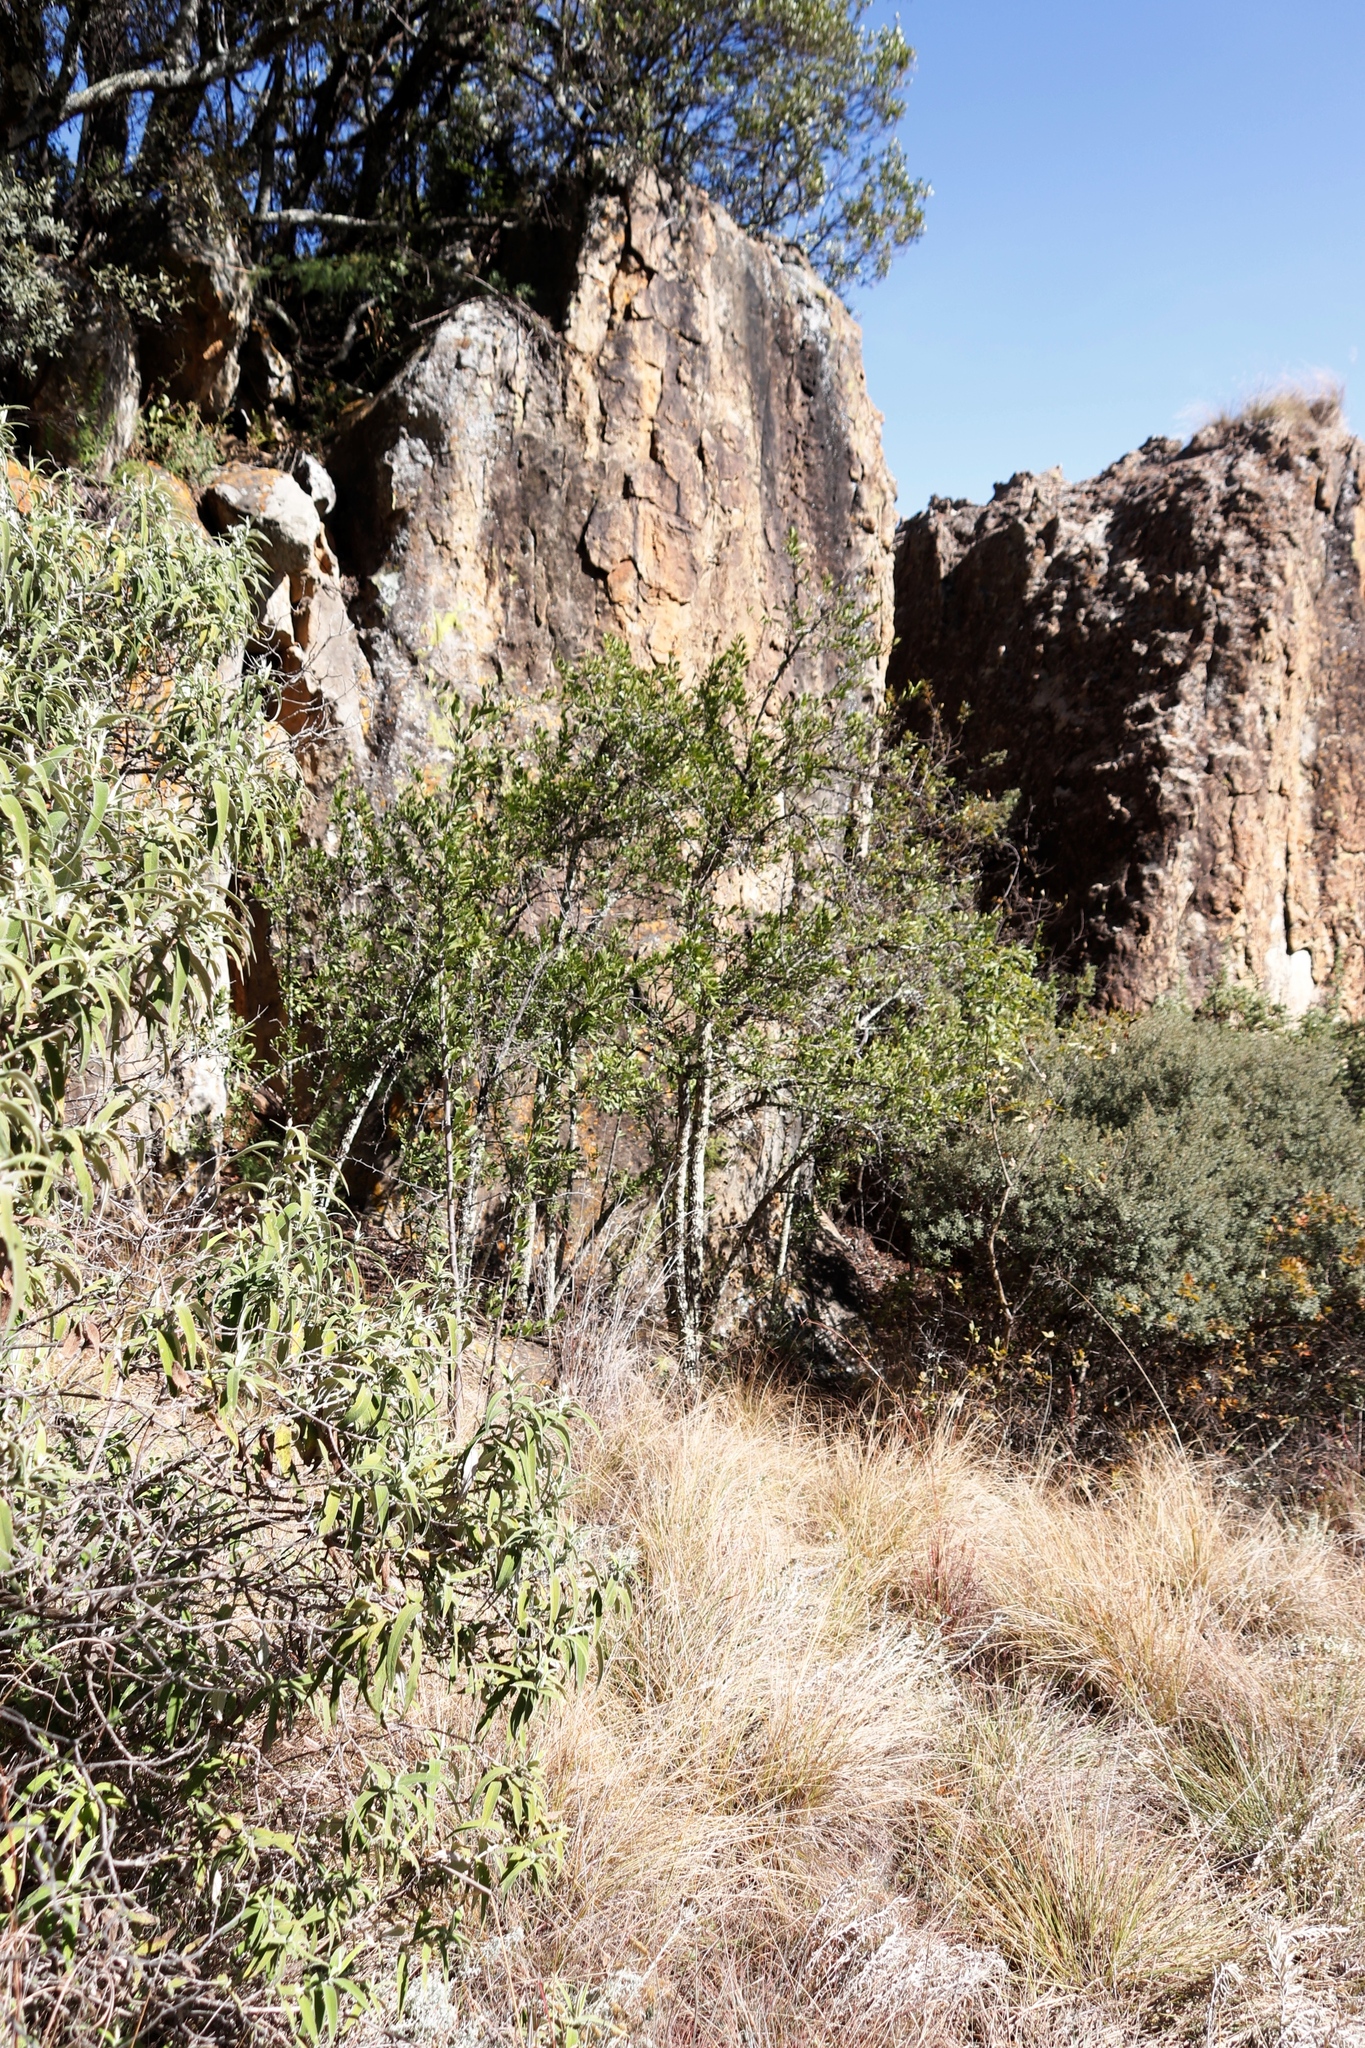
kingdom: Plantae
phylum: Tracheophyta
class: Magnoliopsida
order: Celastrales
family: Celastraceae
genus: Gymnosporia
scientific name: Gymnosporia buxifolia
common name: Common spike-thorn
